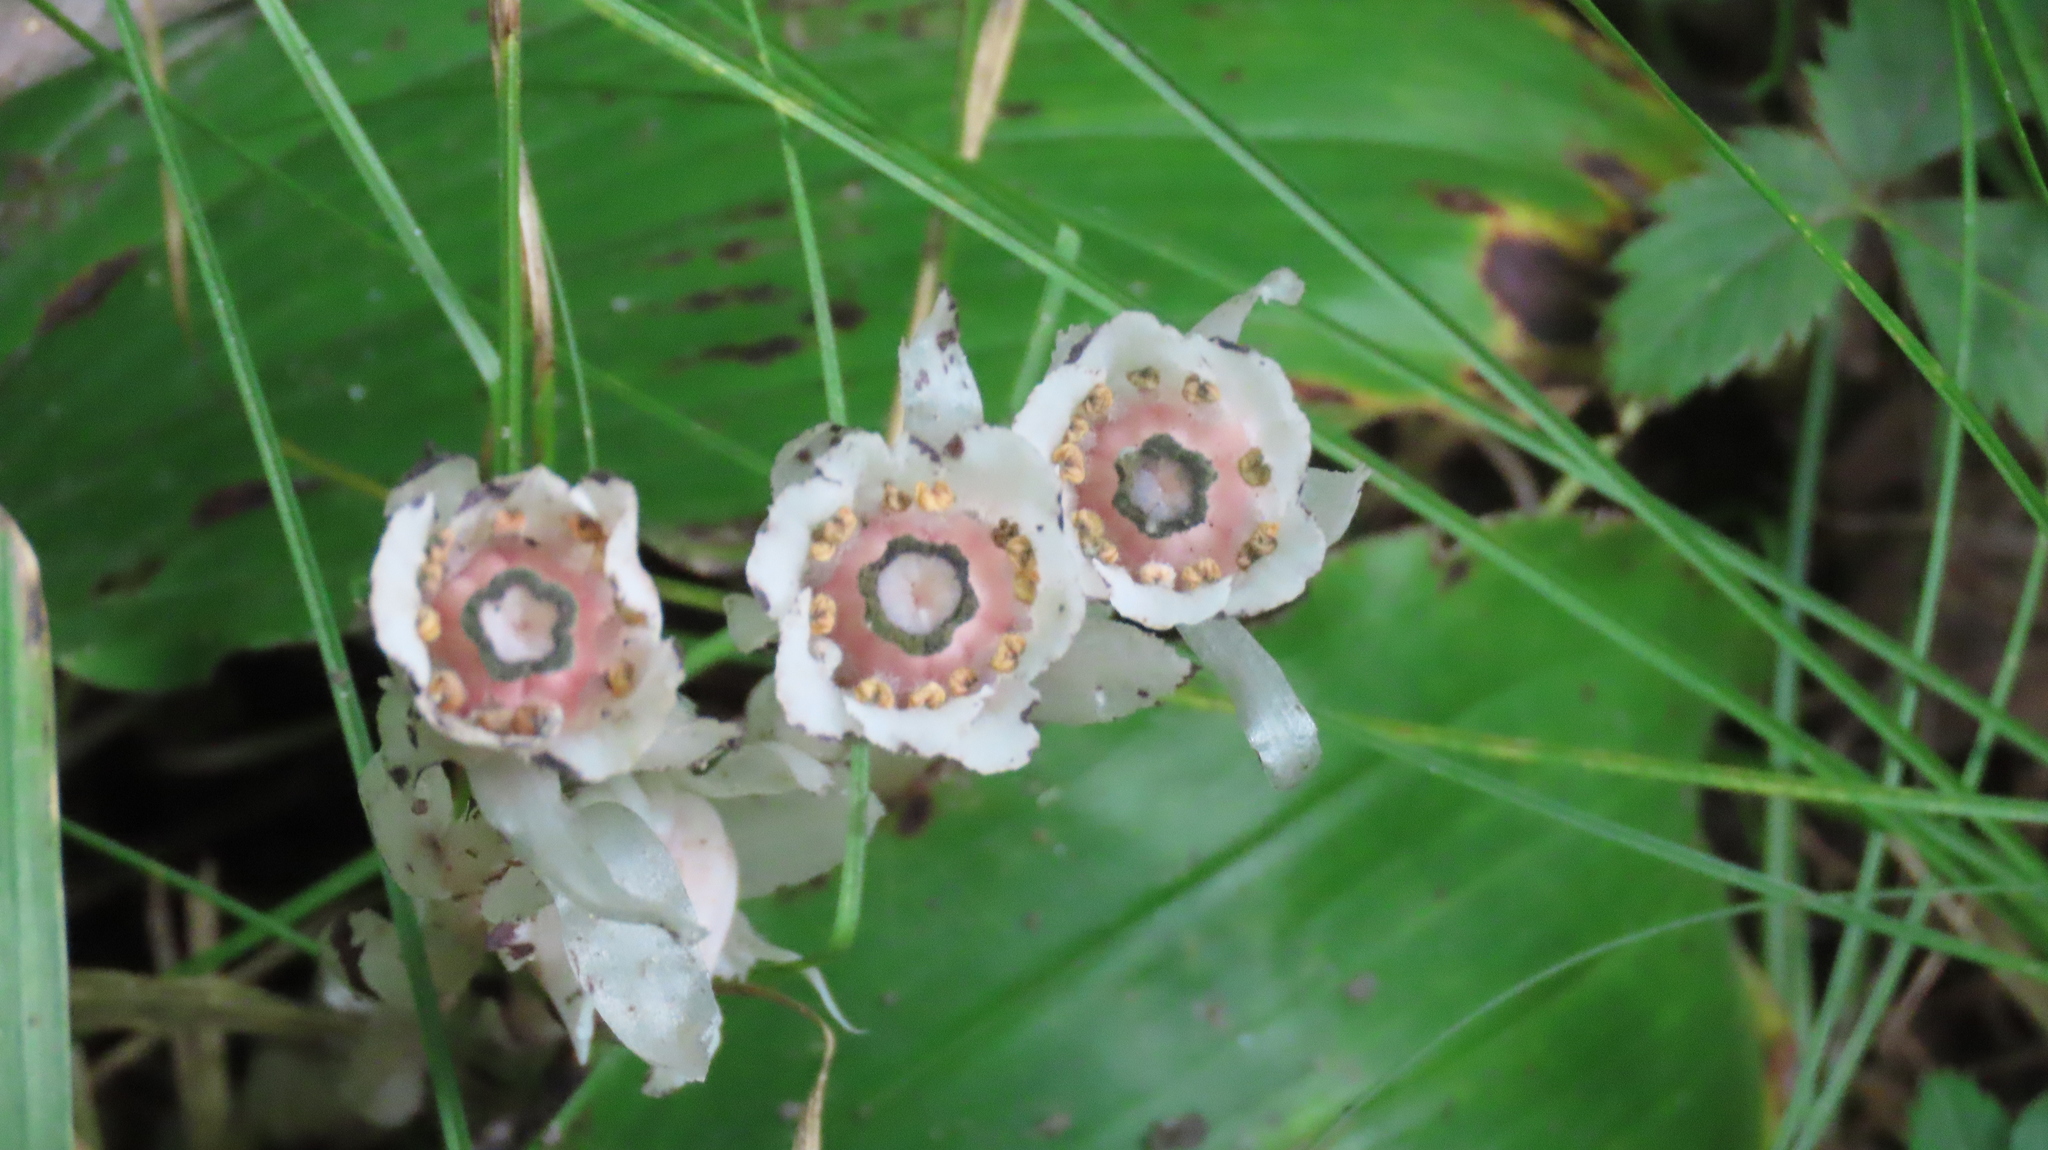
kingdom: Plantae
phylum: Tracheophyta
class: Magnoliopsida
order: Ericales
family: Ericaceae
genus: Monotropa
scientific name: Monotropa uniflora
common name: Convulsion root
